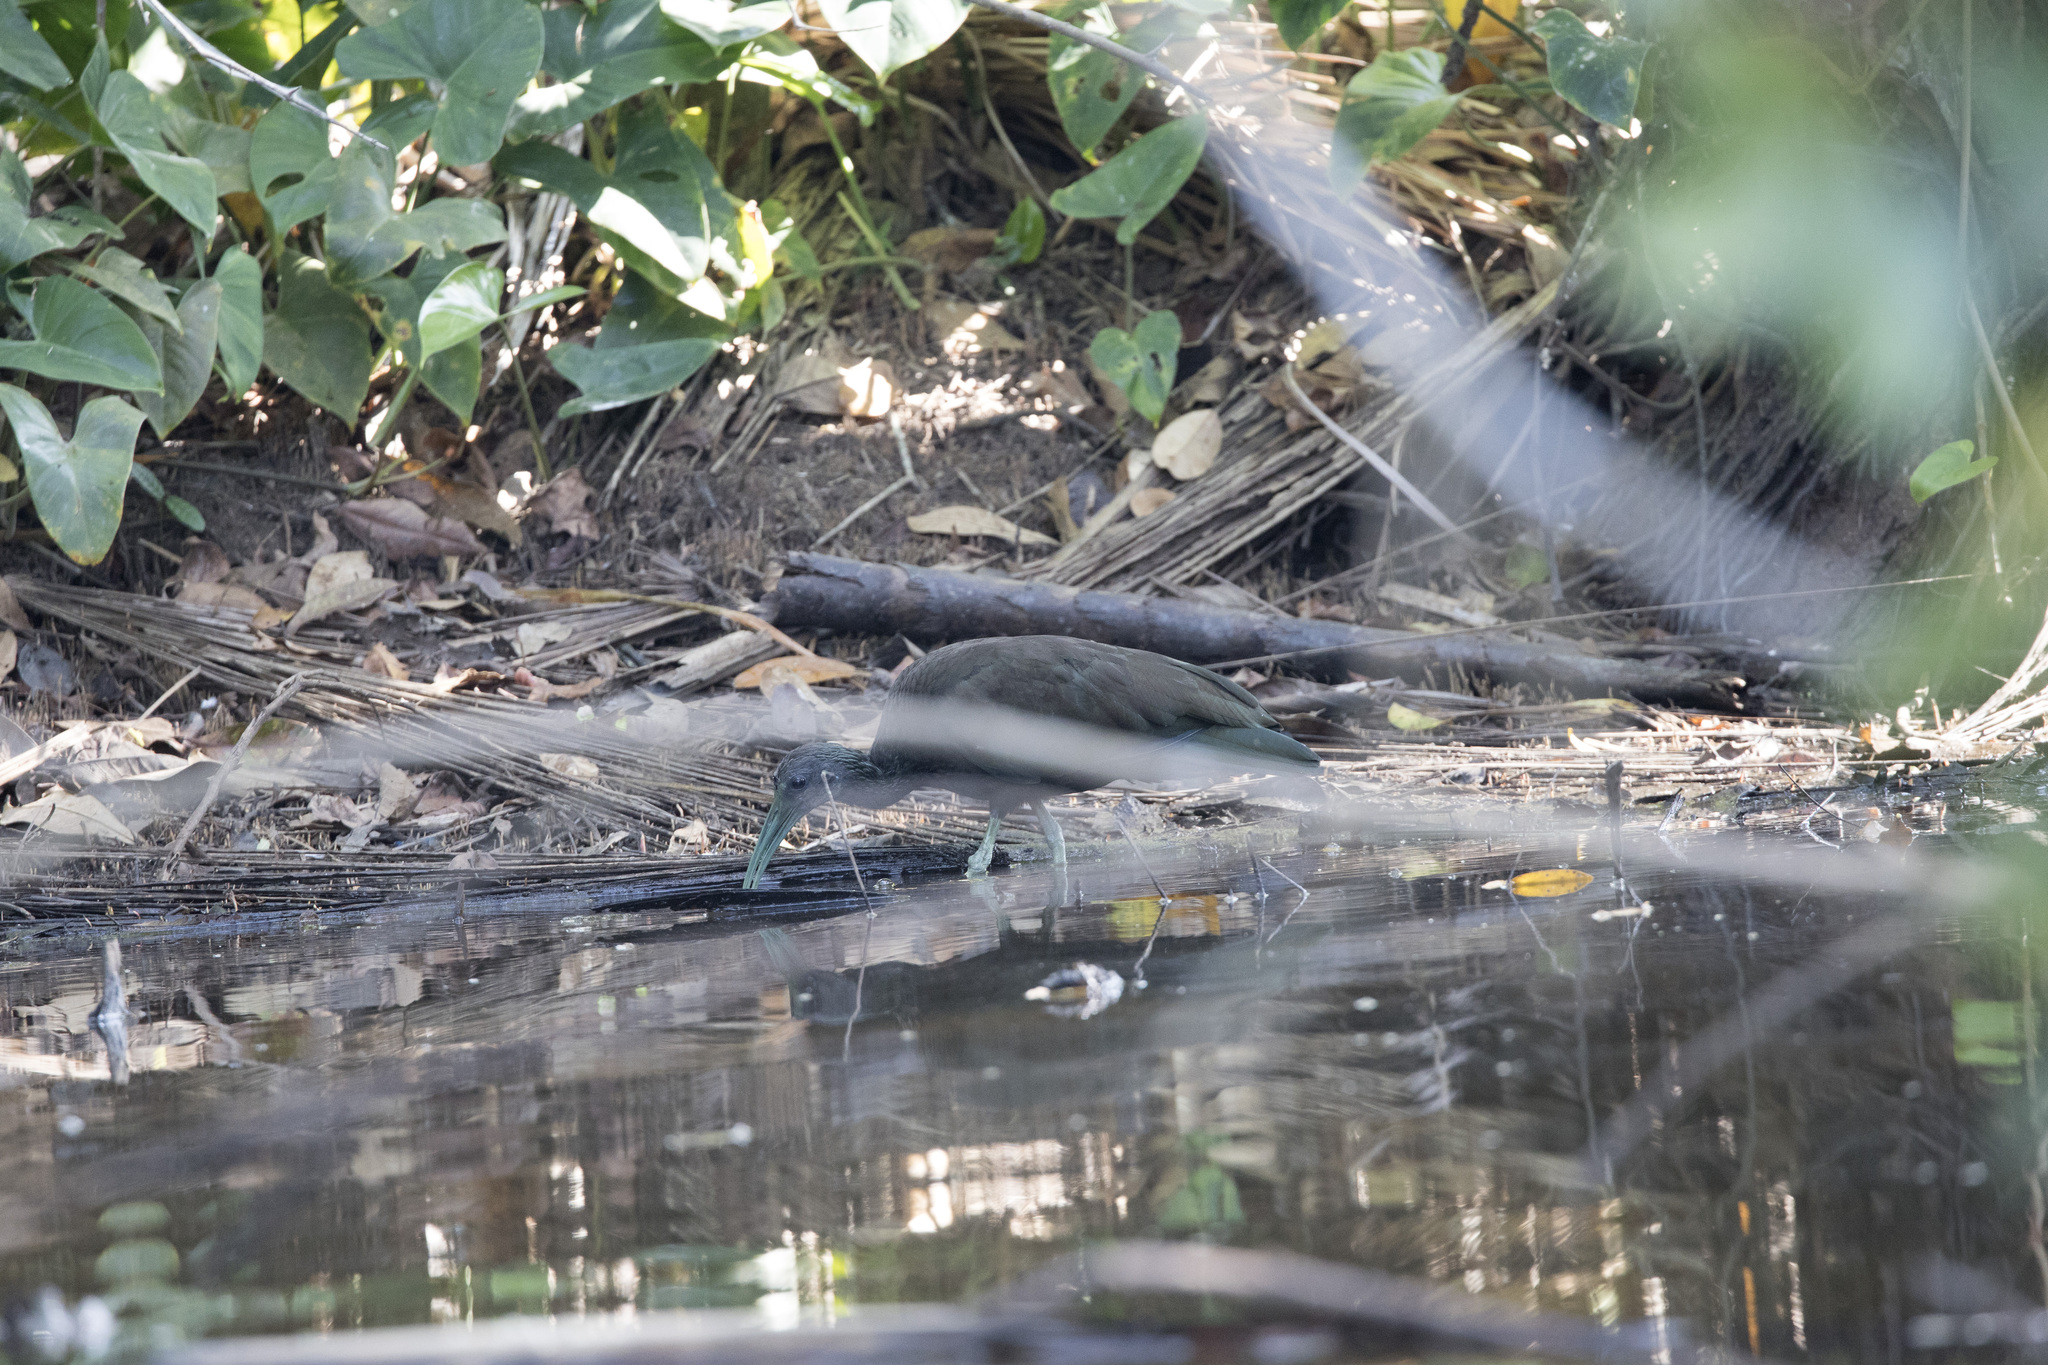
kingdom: Animalia
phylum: Chordata
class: Aves
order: Pelecaniformes
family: Threskiornithidae
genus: Mesembrinibis
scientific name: Mesembrinibis cayennensis
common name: Green ibis
